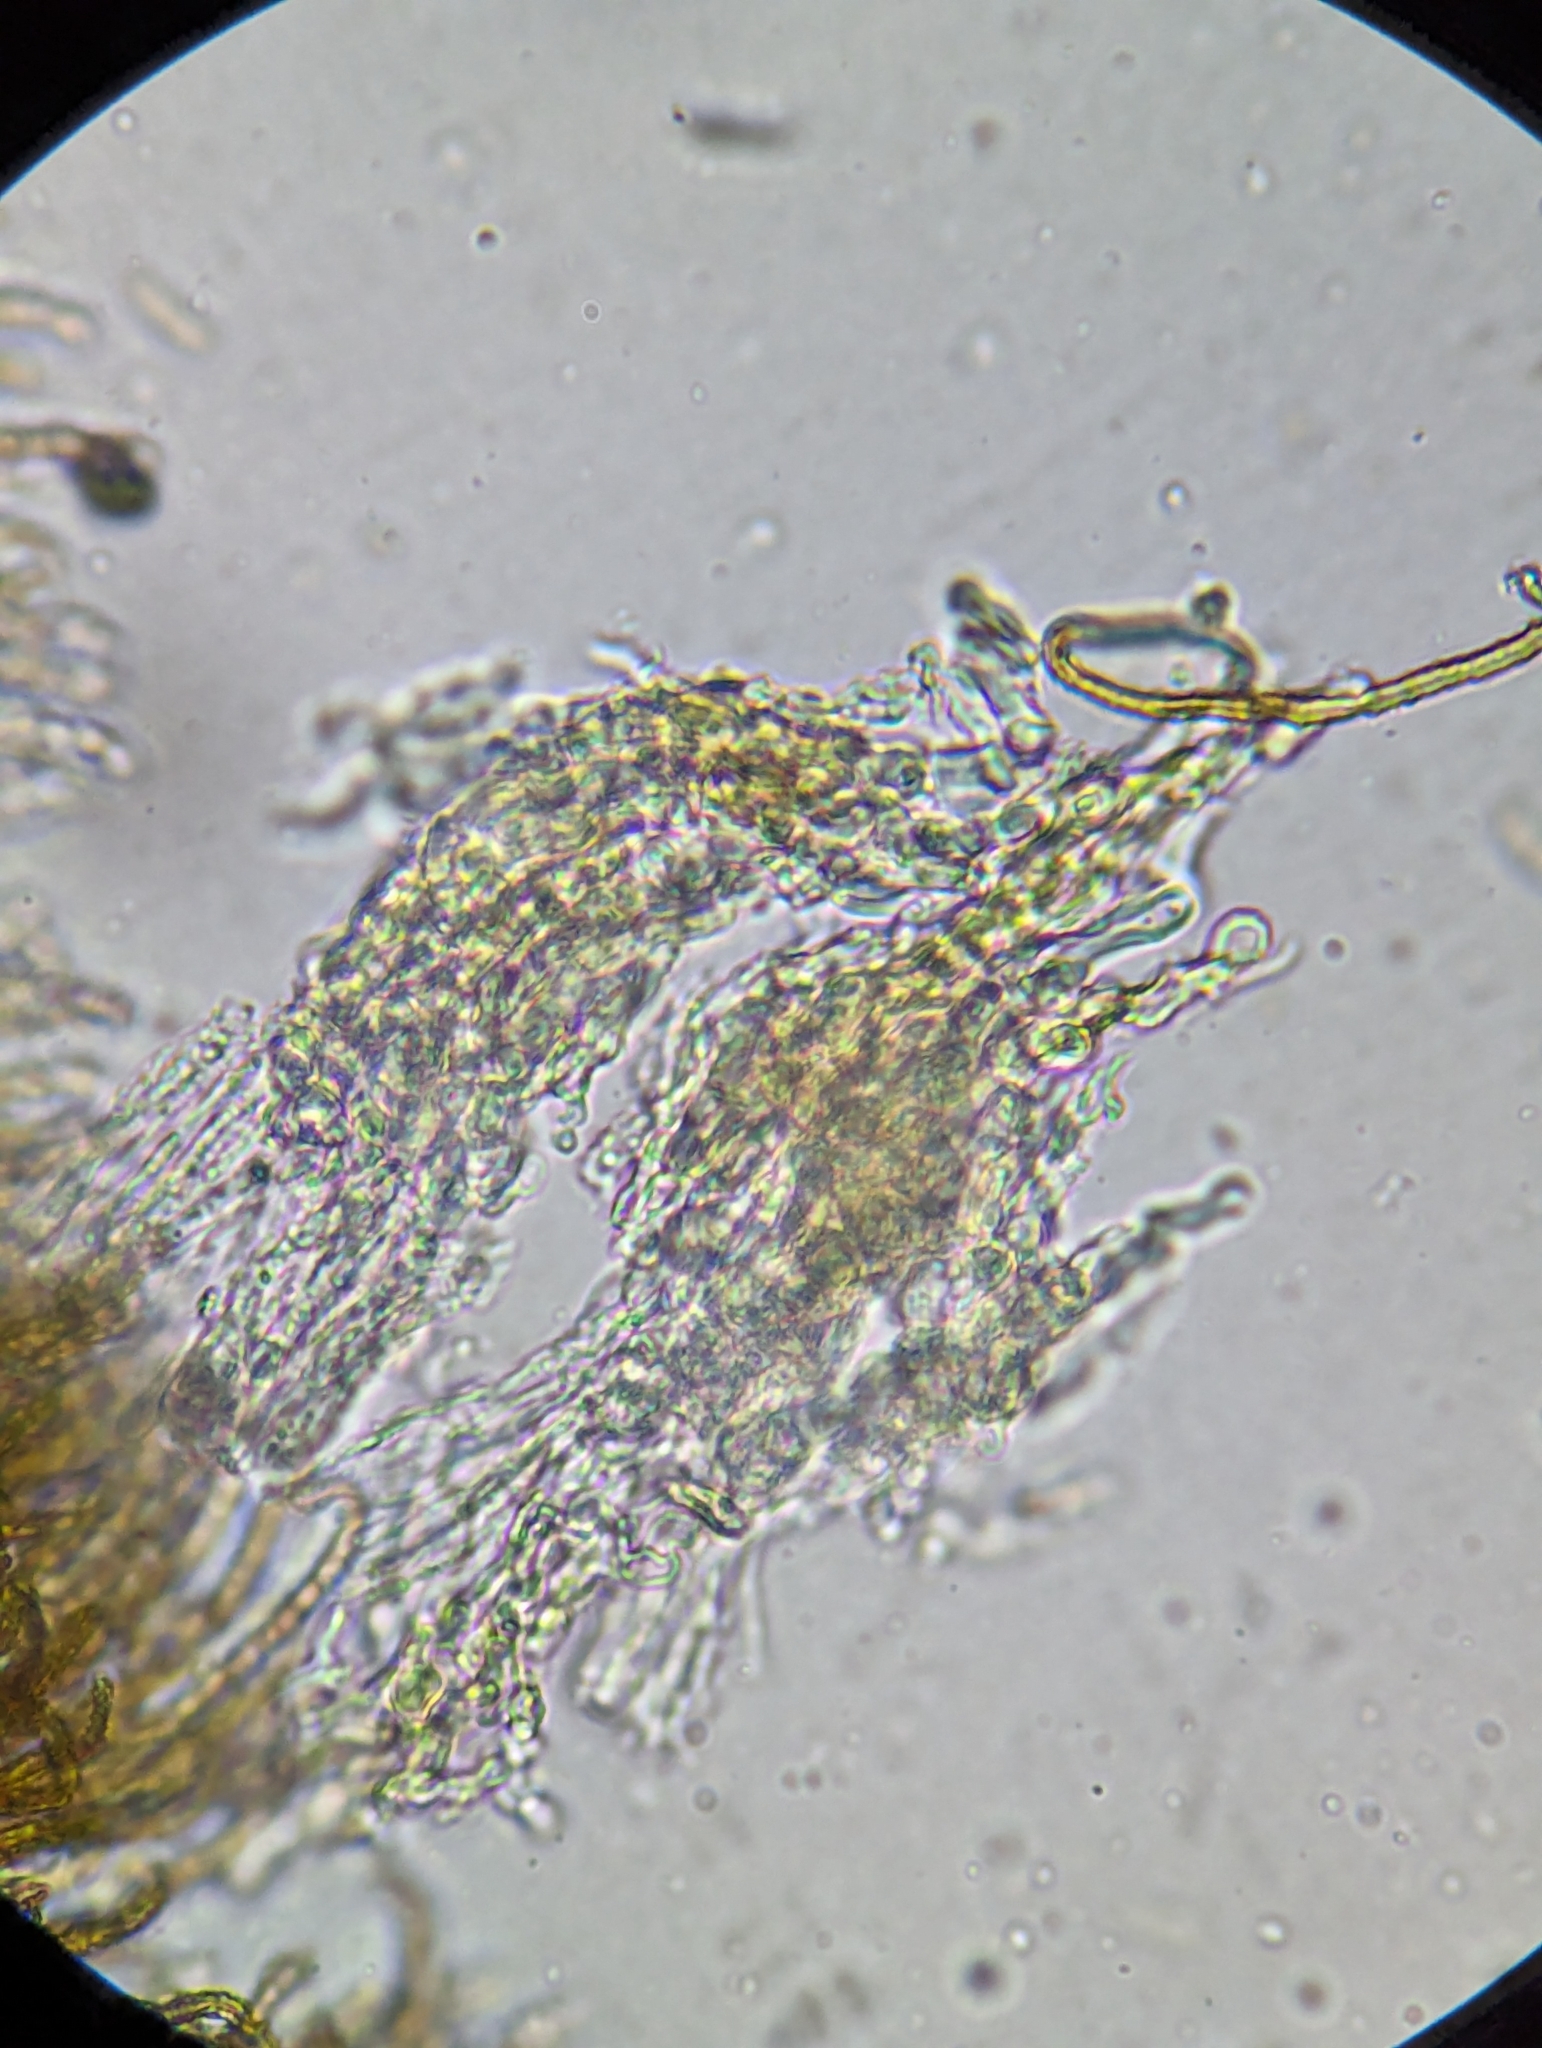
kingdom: Fungi
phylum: Basidiomycota
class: Agaricomycetes
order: Agaricales
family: Niaceae
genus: Merismodes
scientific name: Merismodes fasciculata
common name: Crowded cuplet
